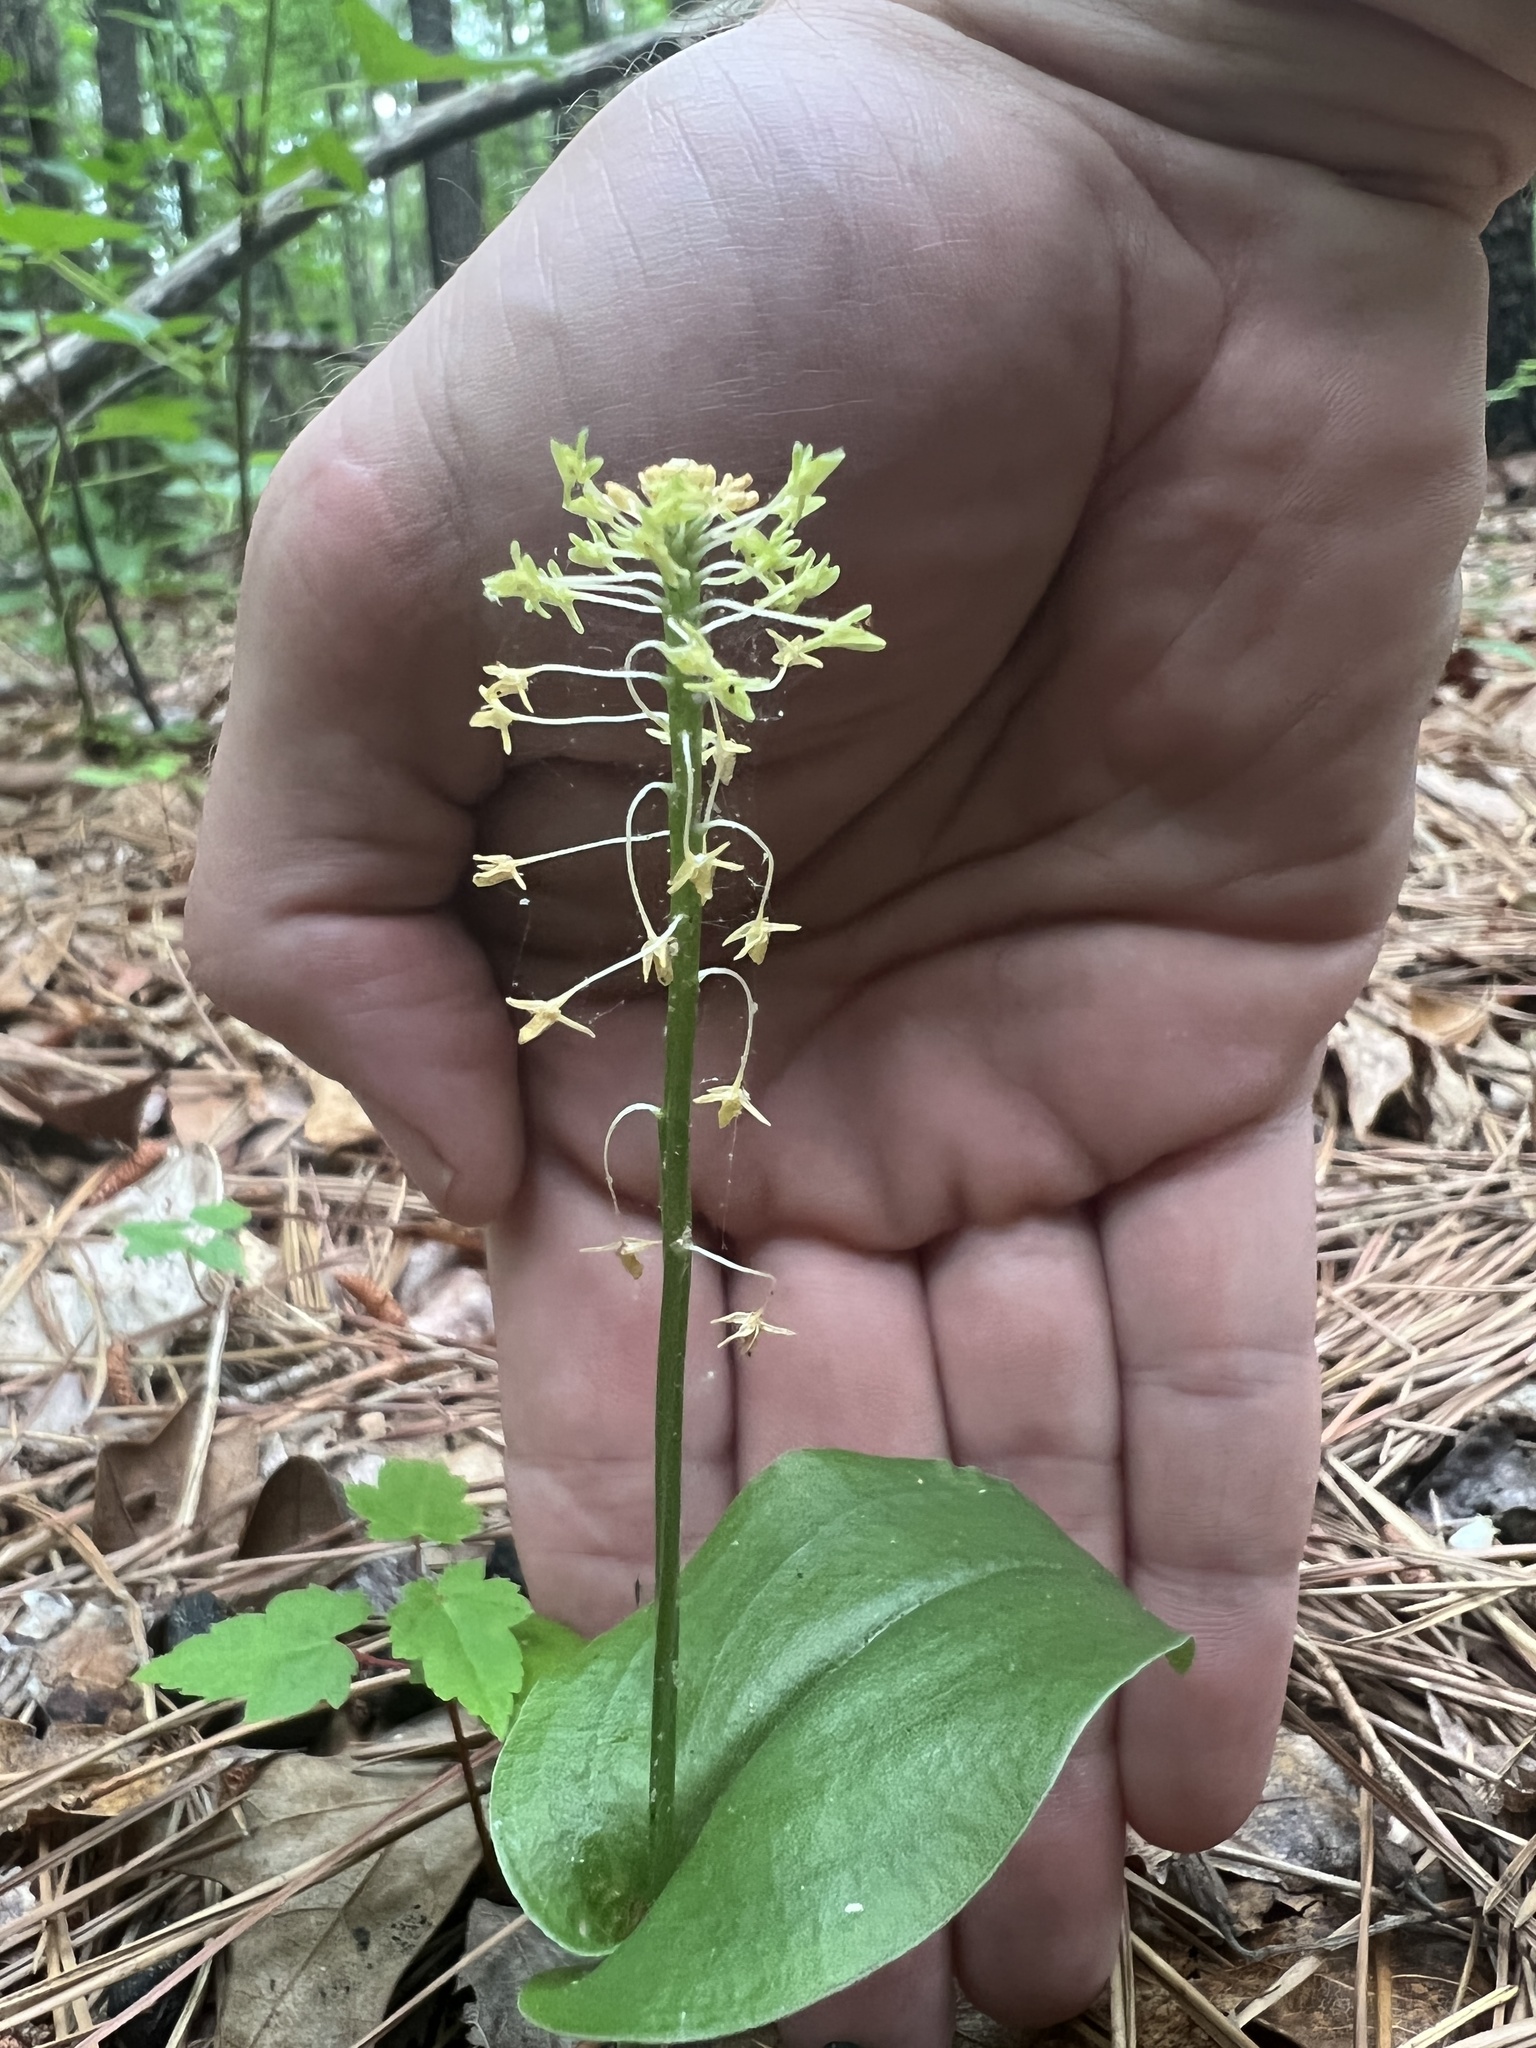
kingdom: Plantae
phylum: Tracheophyta
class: Liliopsida
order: Asparagales
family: Orchidaceae
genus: Malaxis
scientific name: Malaxis unifolia
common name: Green adder's-mouth
